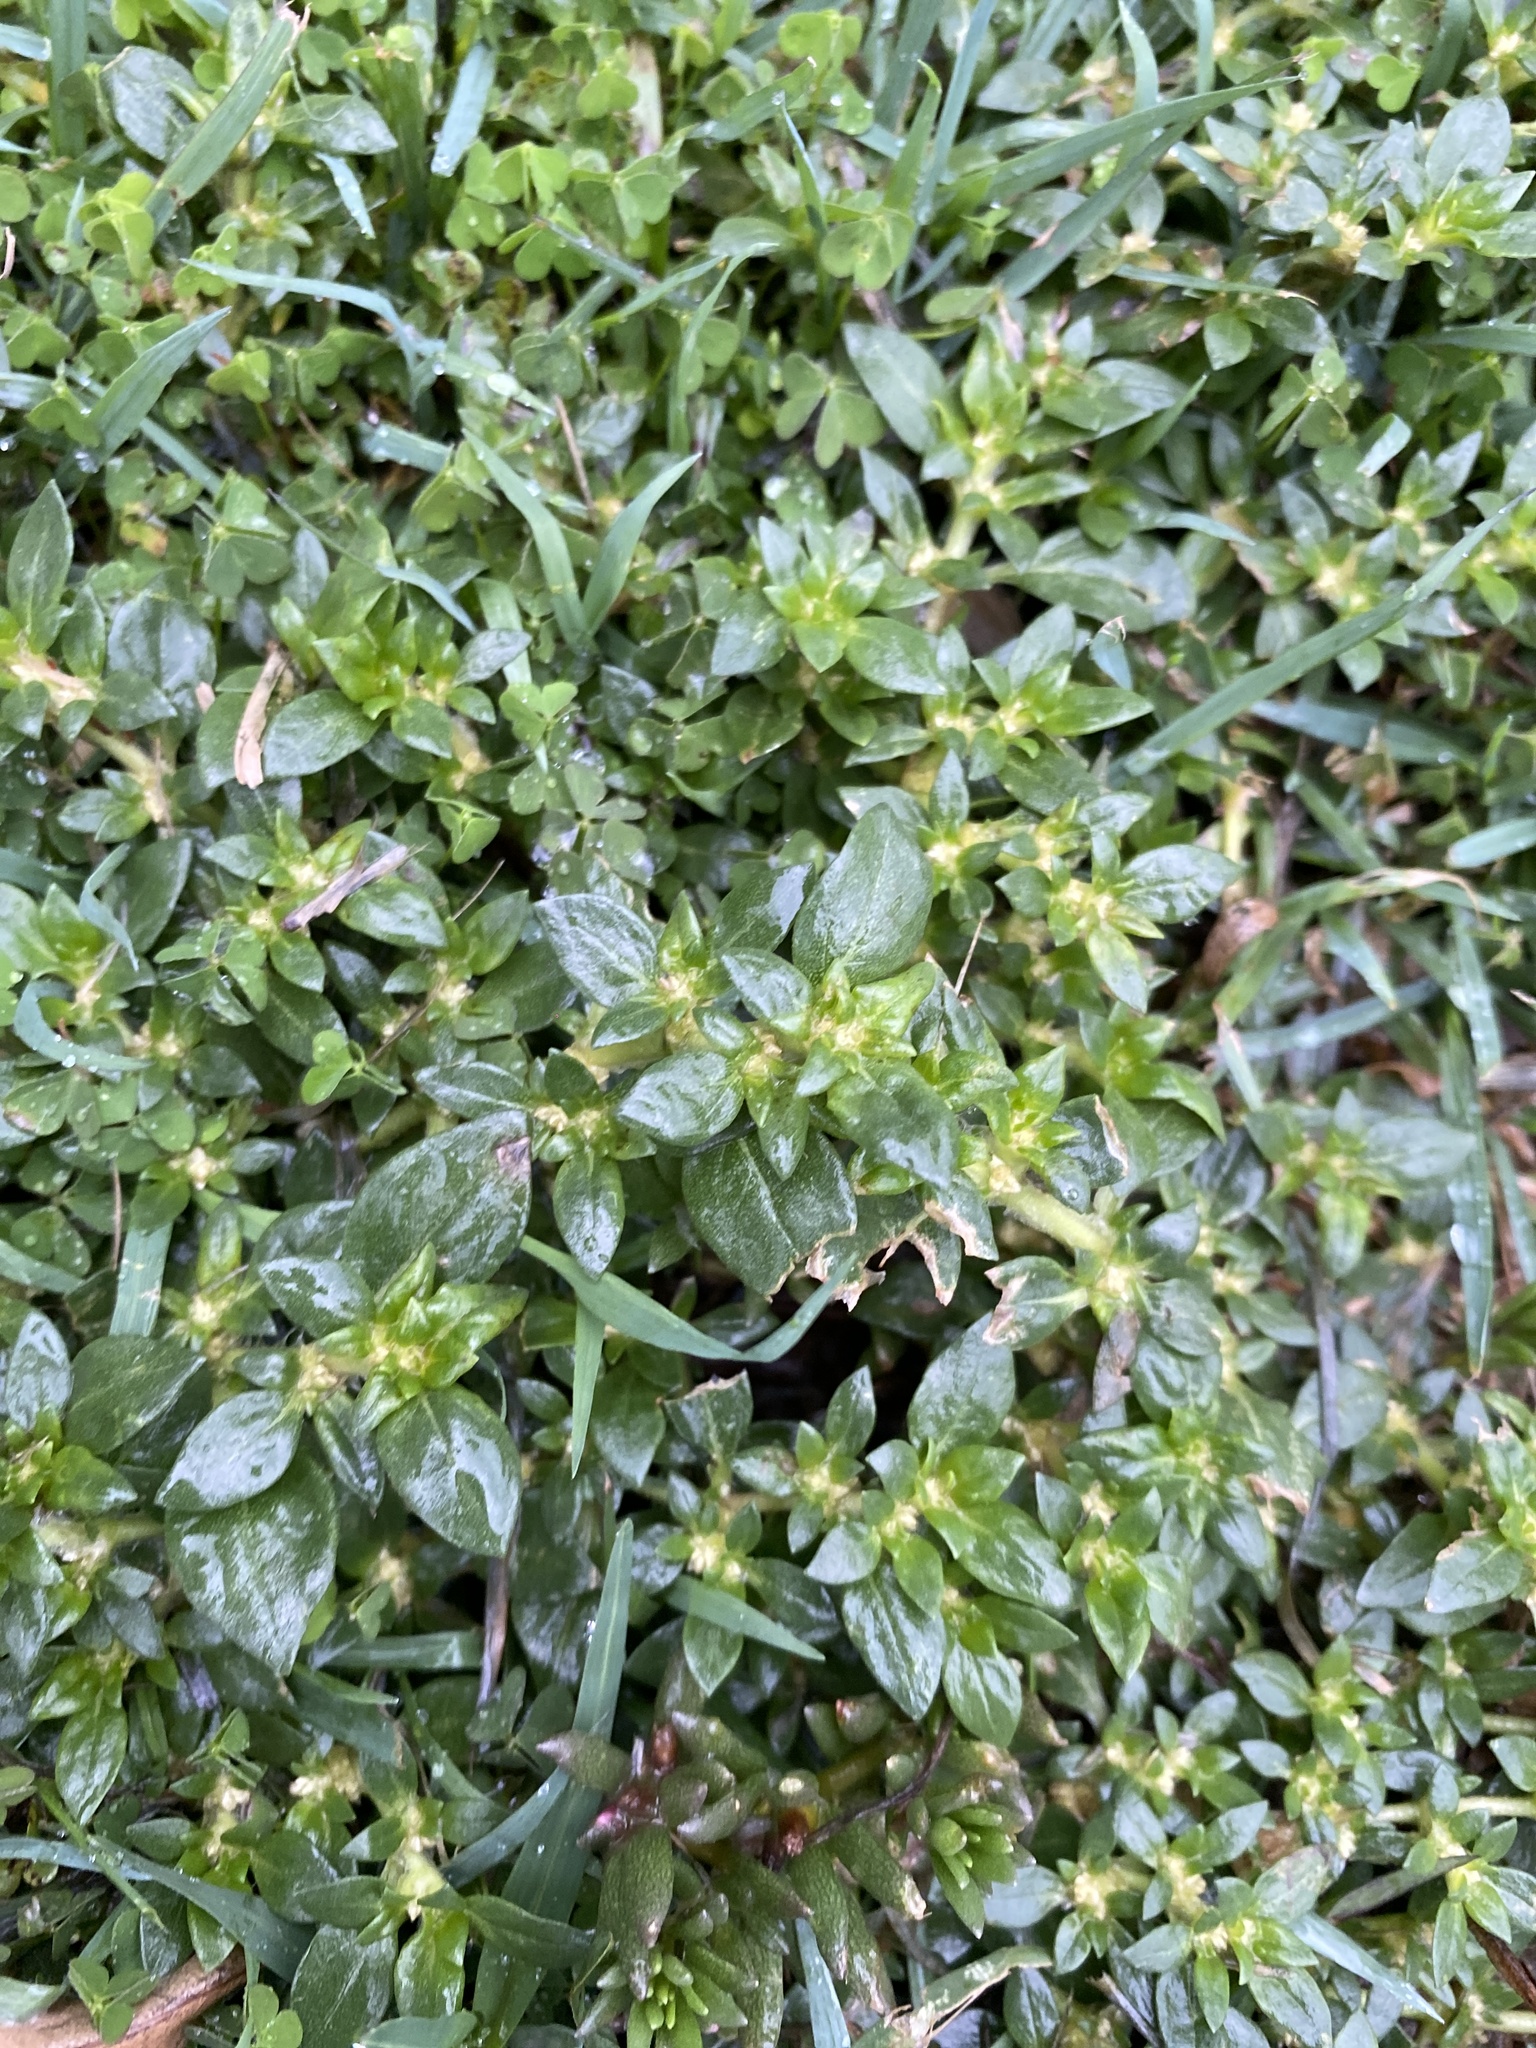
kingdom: Plantae
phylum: Tracheophyta
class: Magnoliopsida
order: Caryophyllales
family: Amaranthaceae
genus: Guilleminea
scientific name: Guilleminea densa
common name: Small matweed
